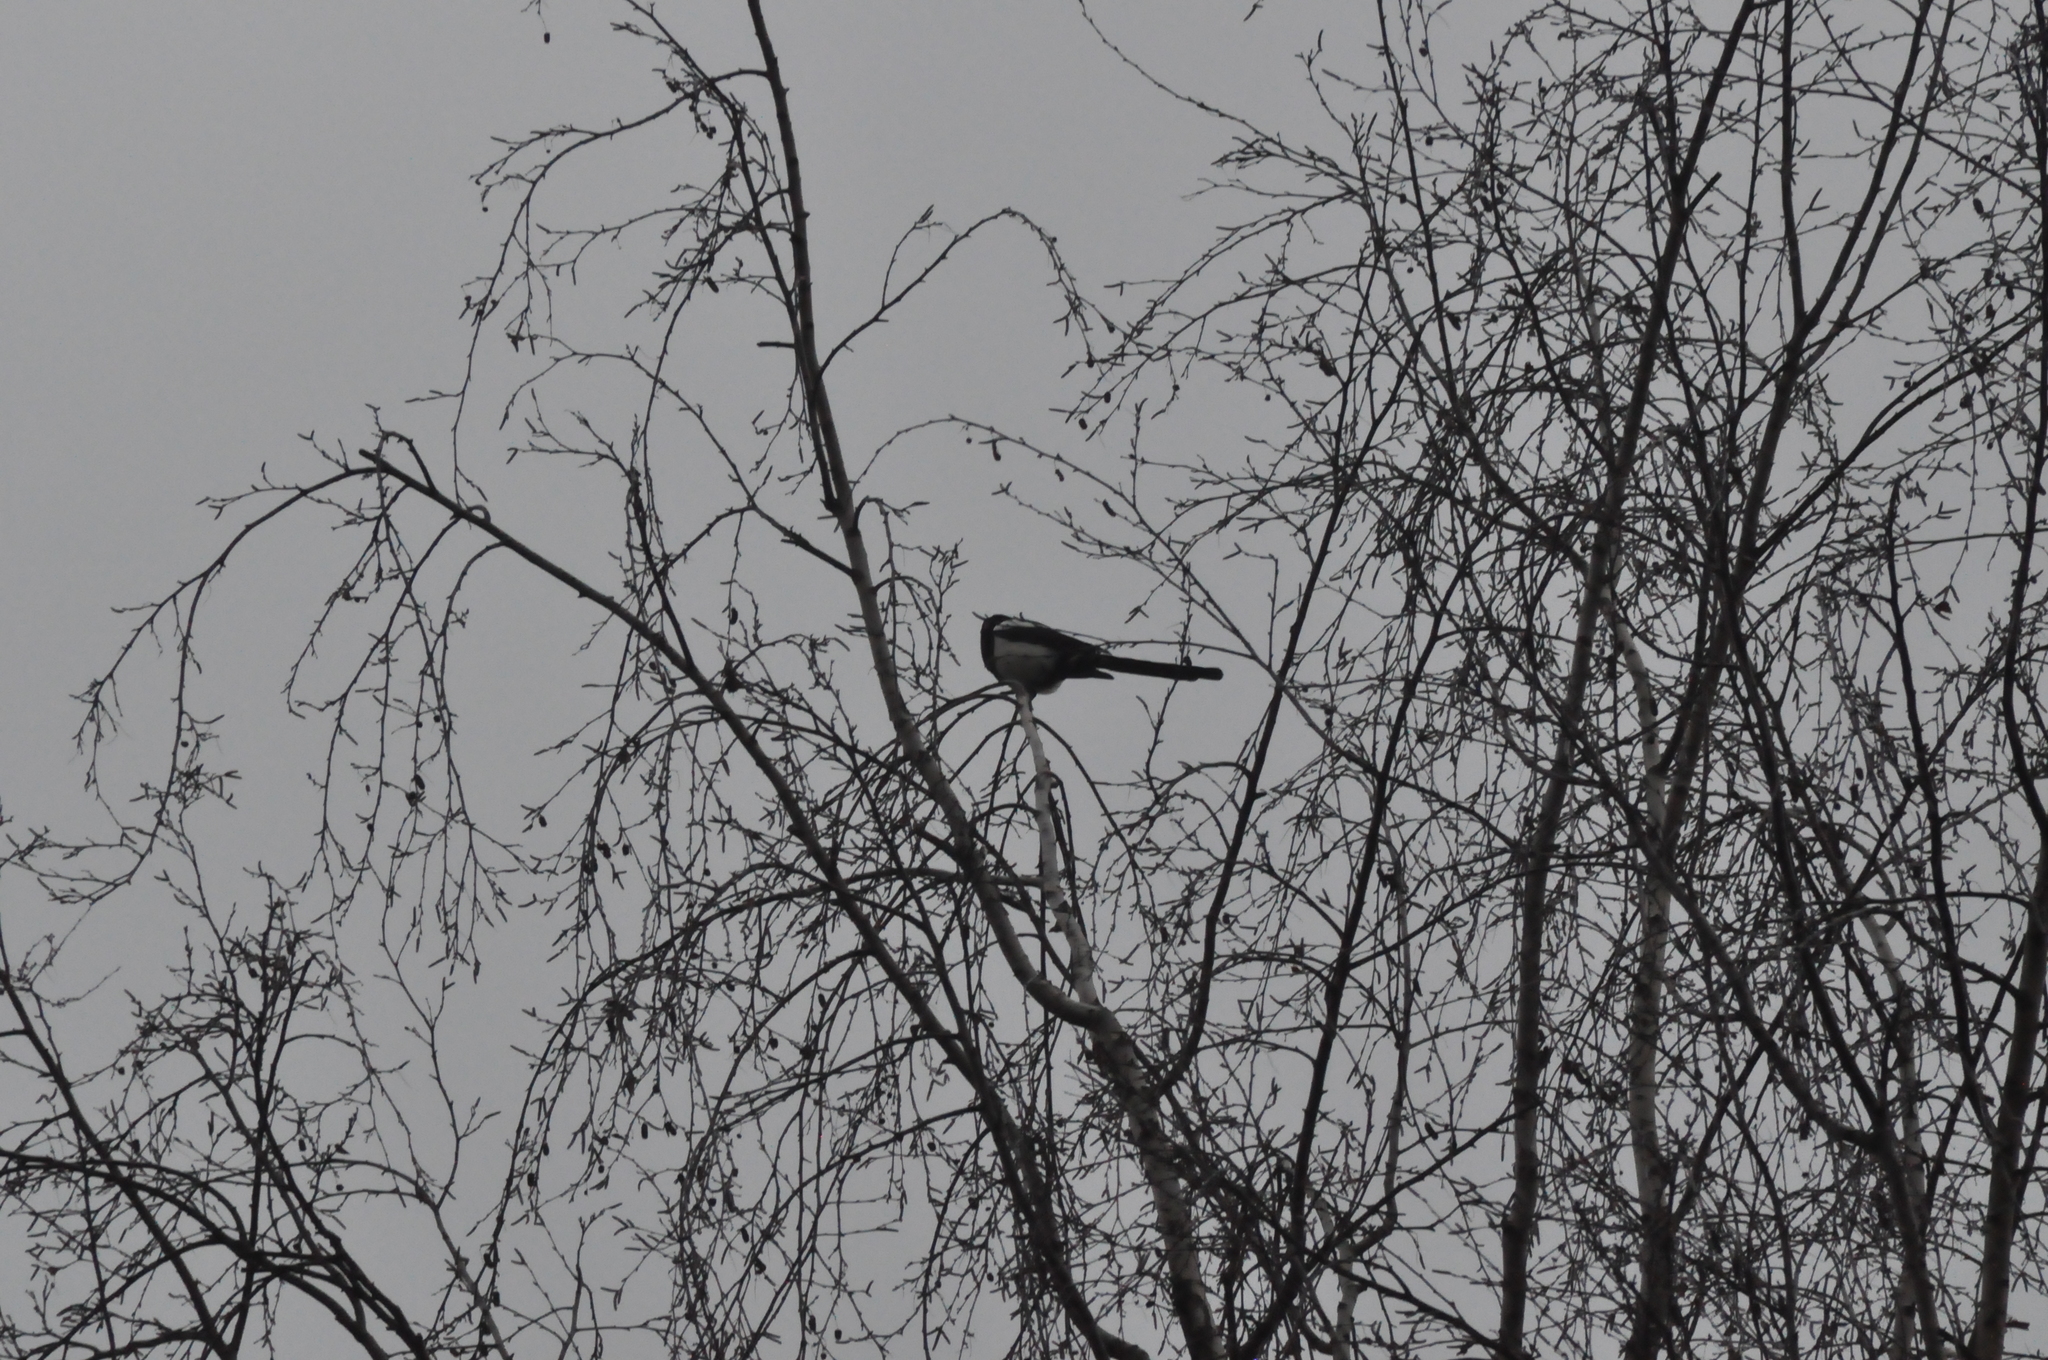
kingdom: Animalia
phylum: Chordata
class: Aves
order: Passeriformes
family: Corvidae
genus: Pica
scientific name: Pica pica
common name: Eurasian magpie
